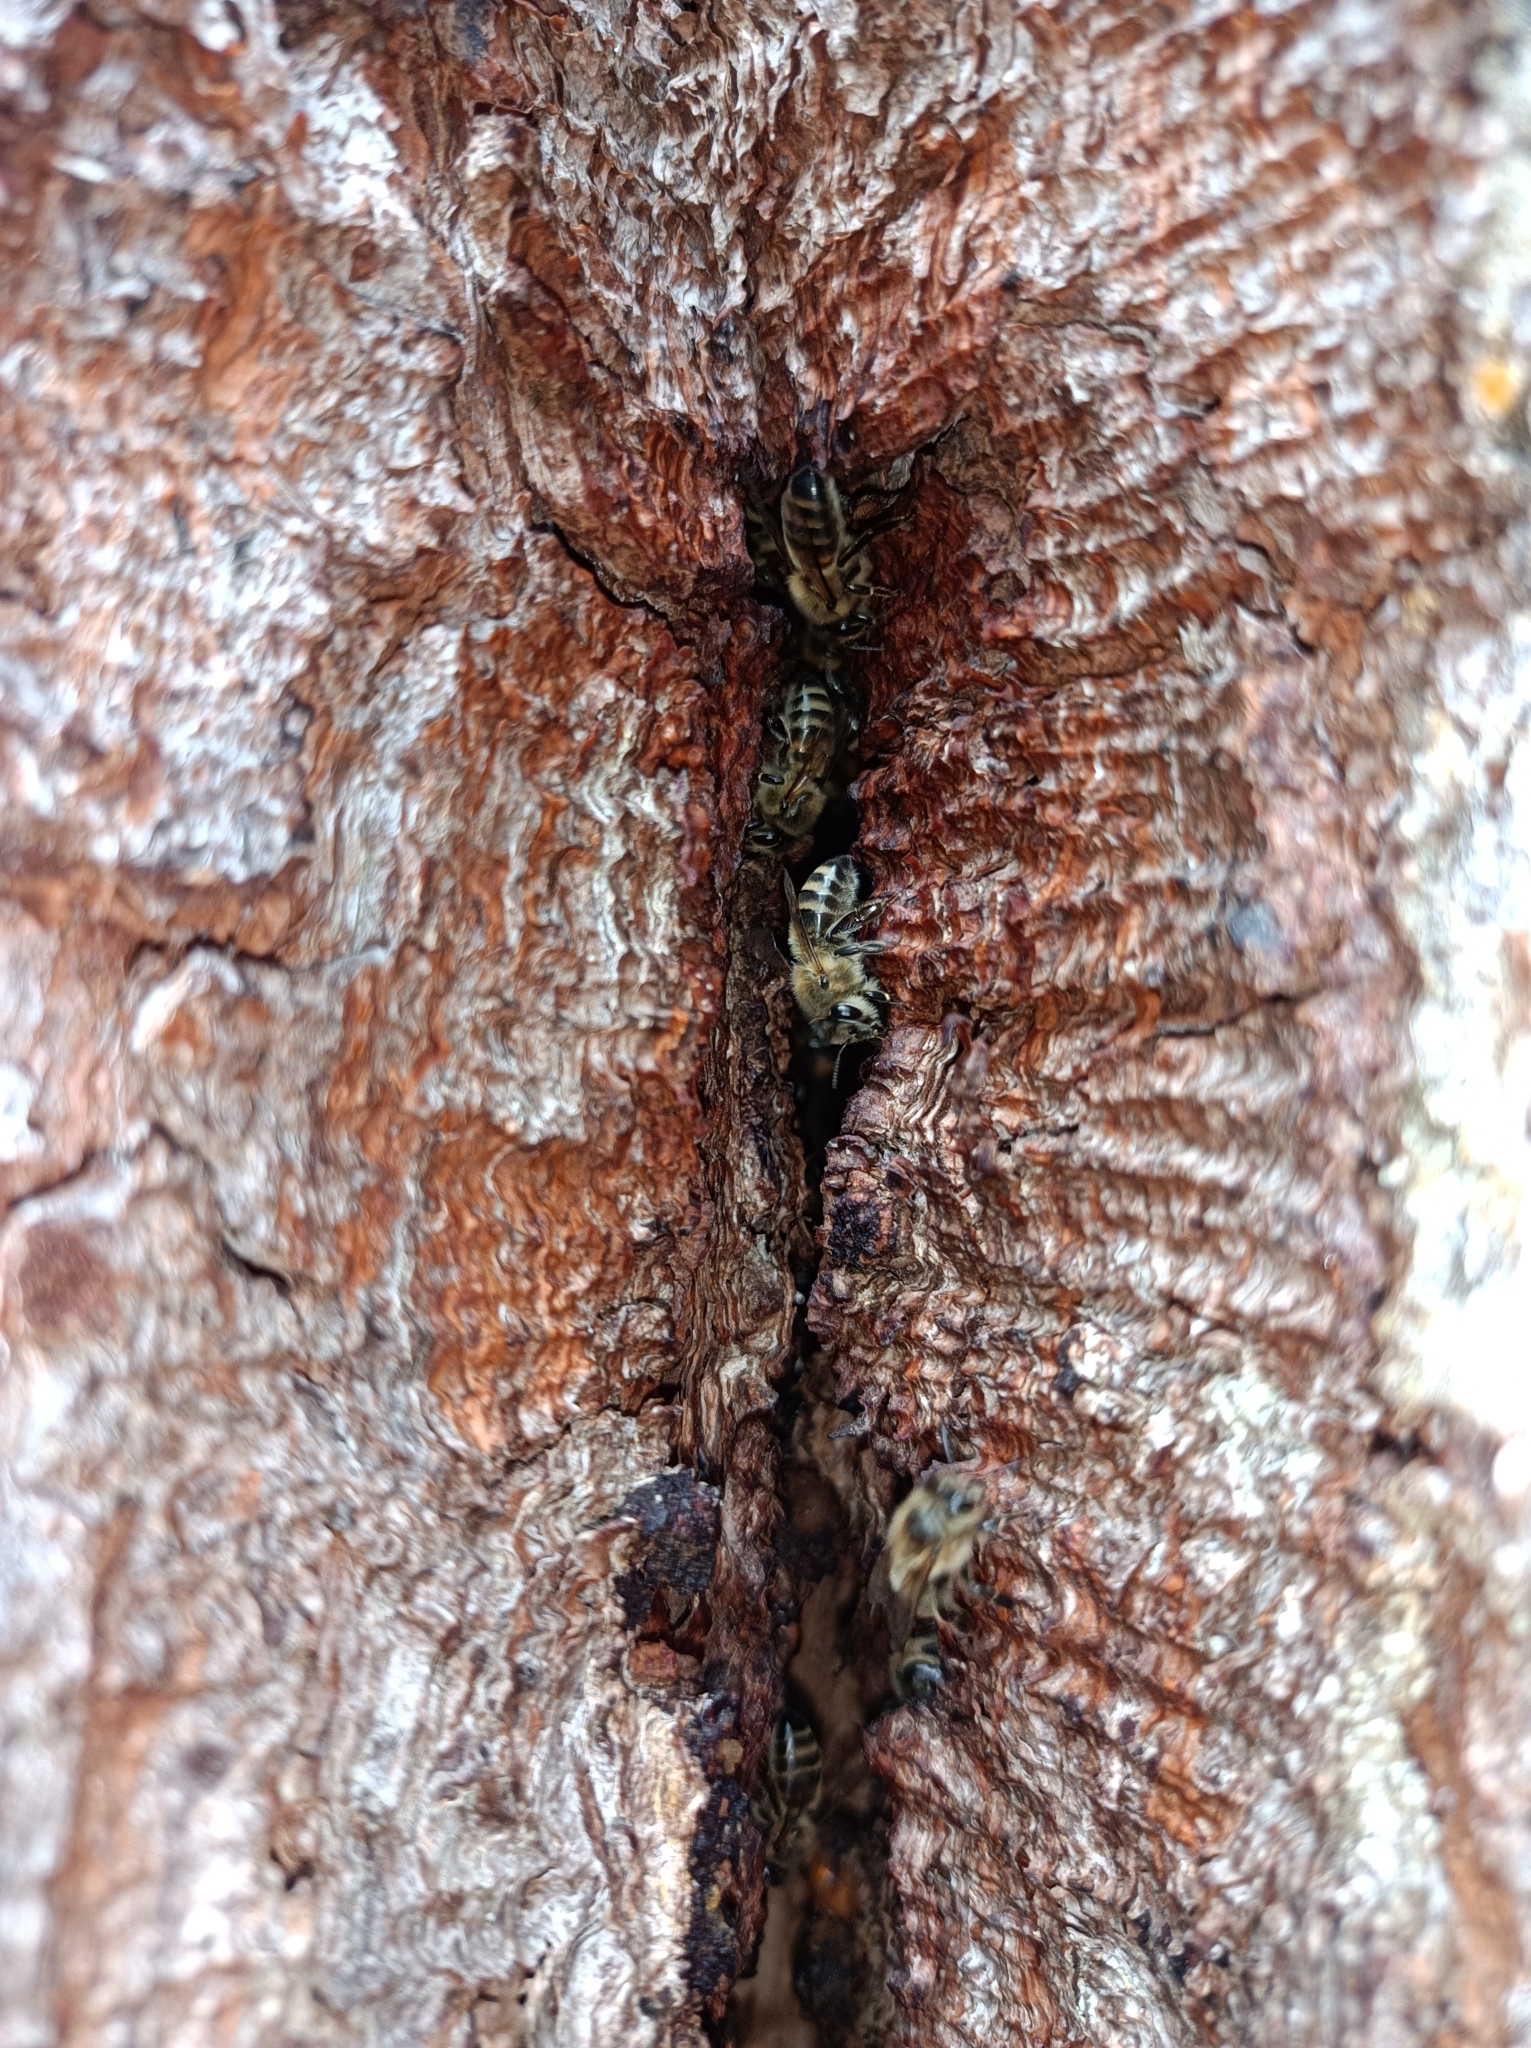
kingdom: Animalia
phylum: Arthropoda
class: Insecta
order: Hymenoptera
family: Apidae
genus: Apis
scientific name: Apis mellifera
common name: Honey bee
